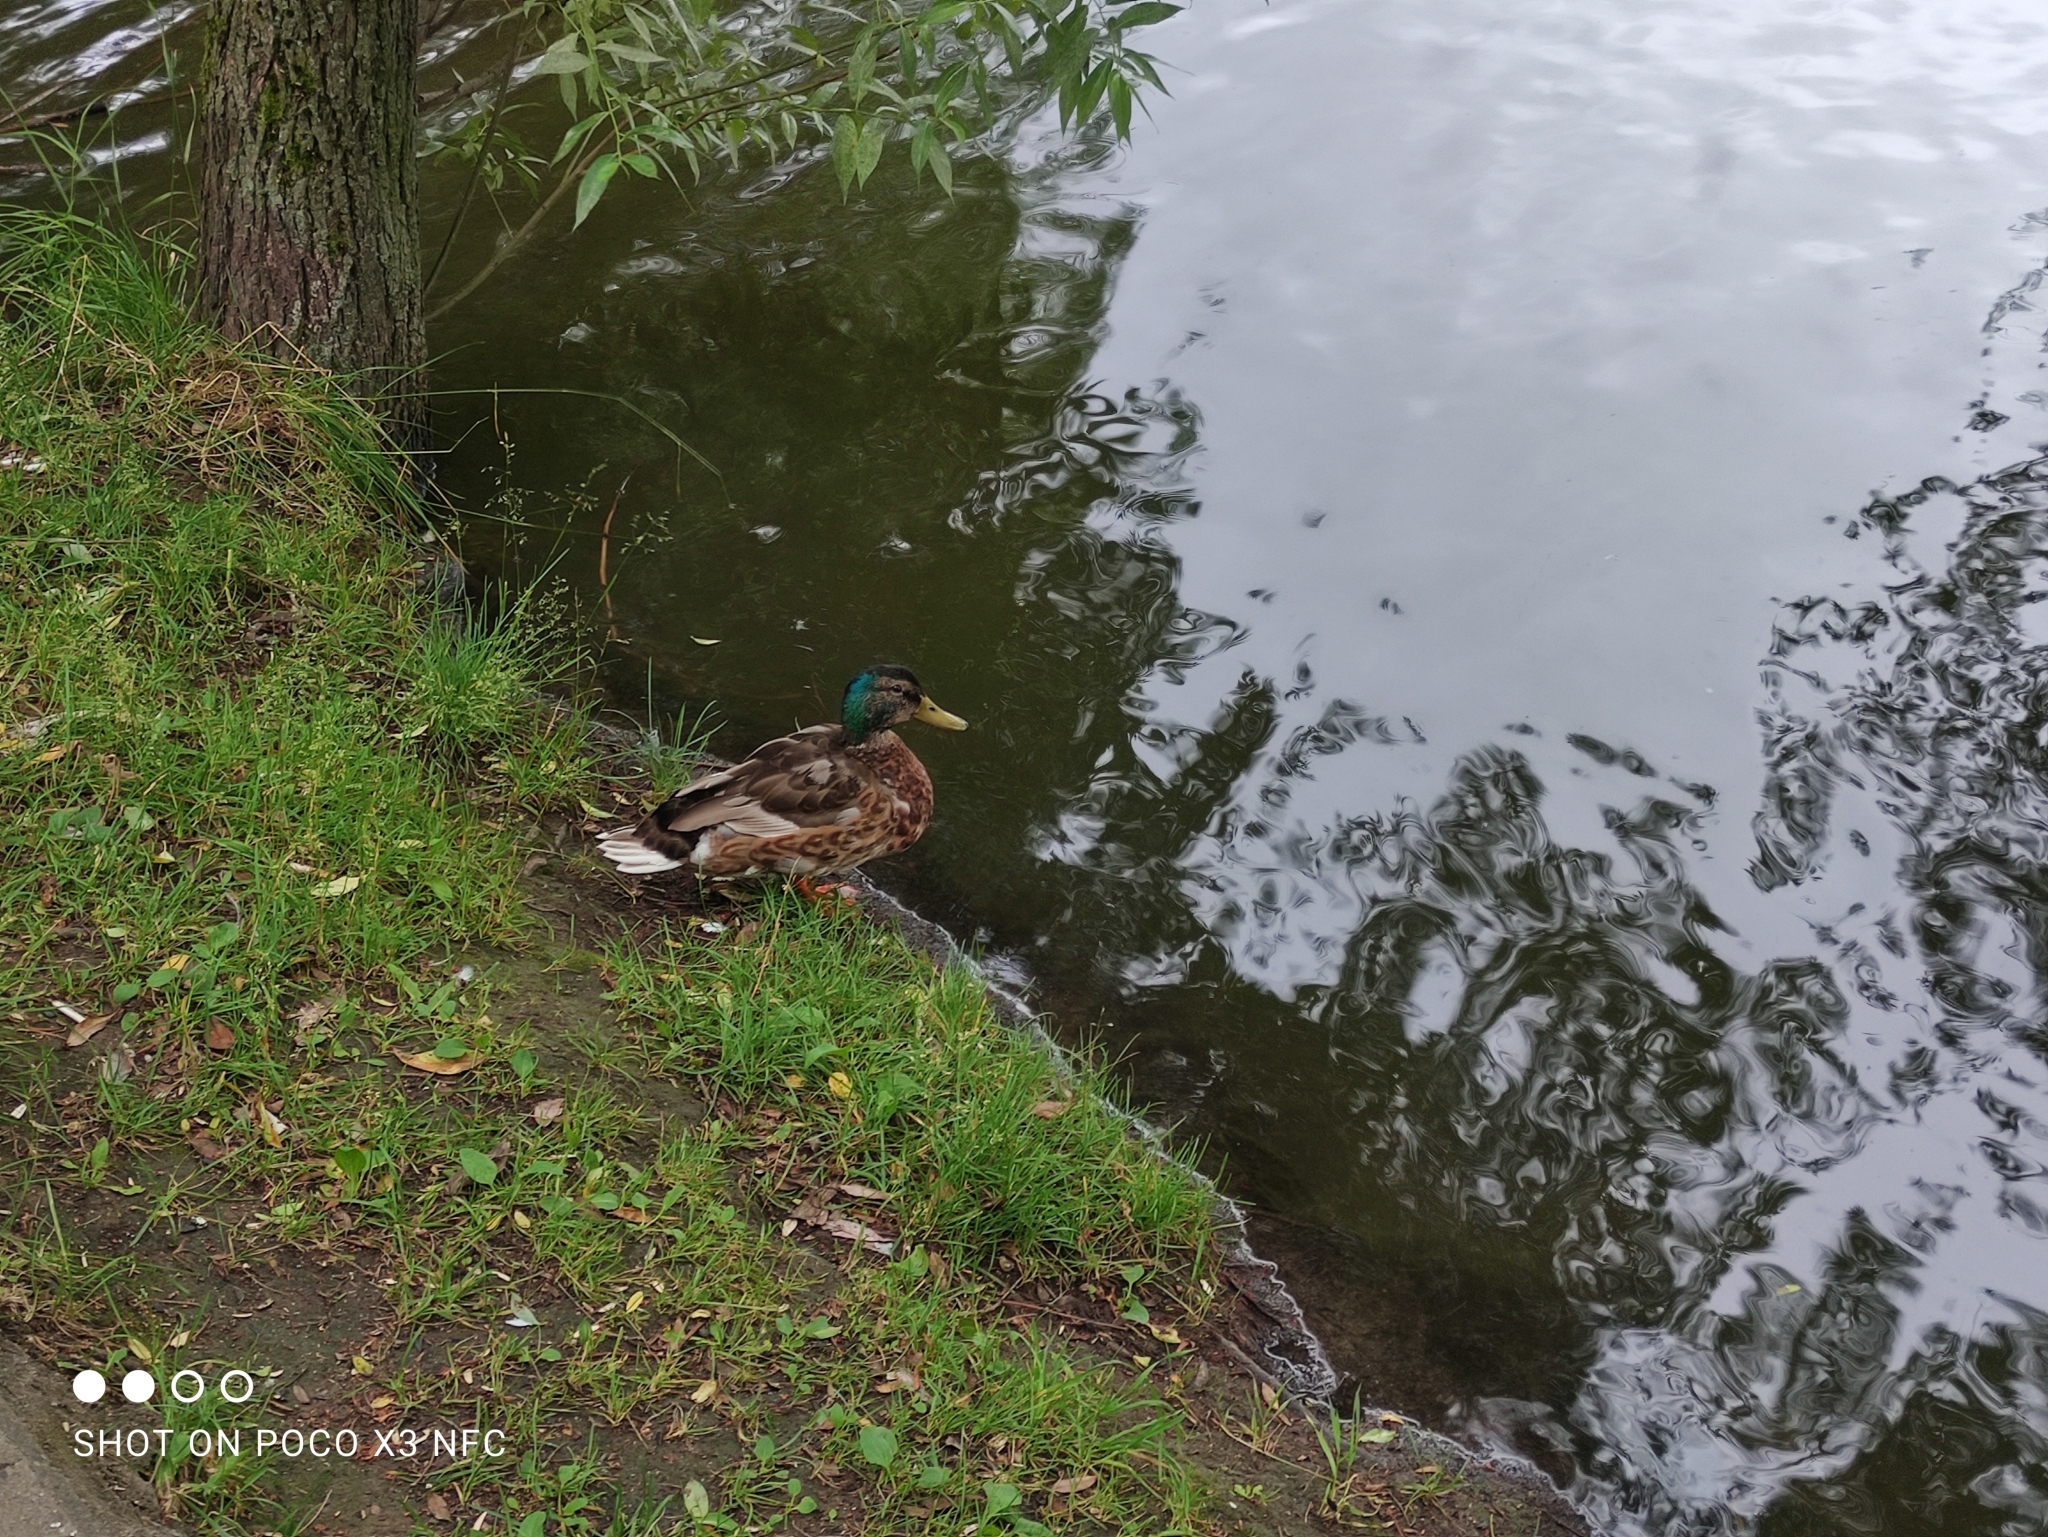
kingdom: Animalia
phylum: Chordata
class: Aves
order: Anseriformes
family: Anatidae
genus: Anas
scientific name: Anas platyrhynchos
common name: Mallard
